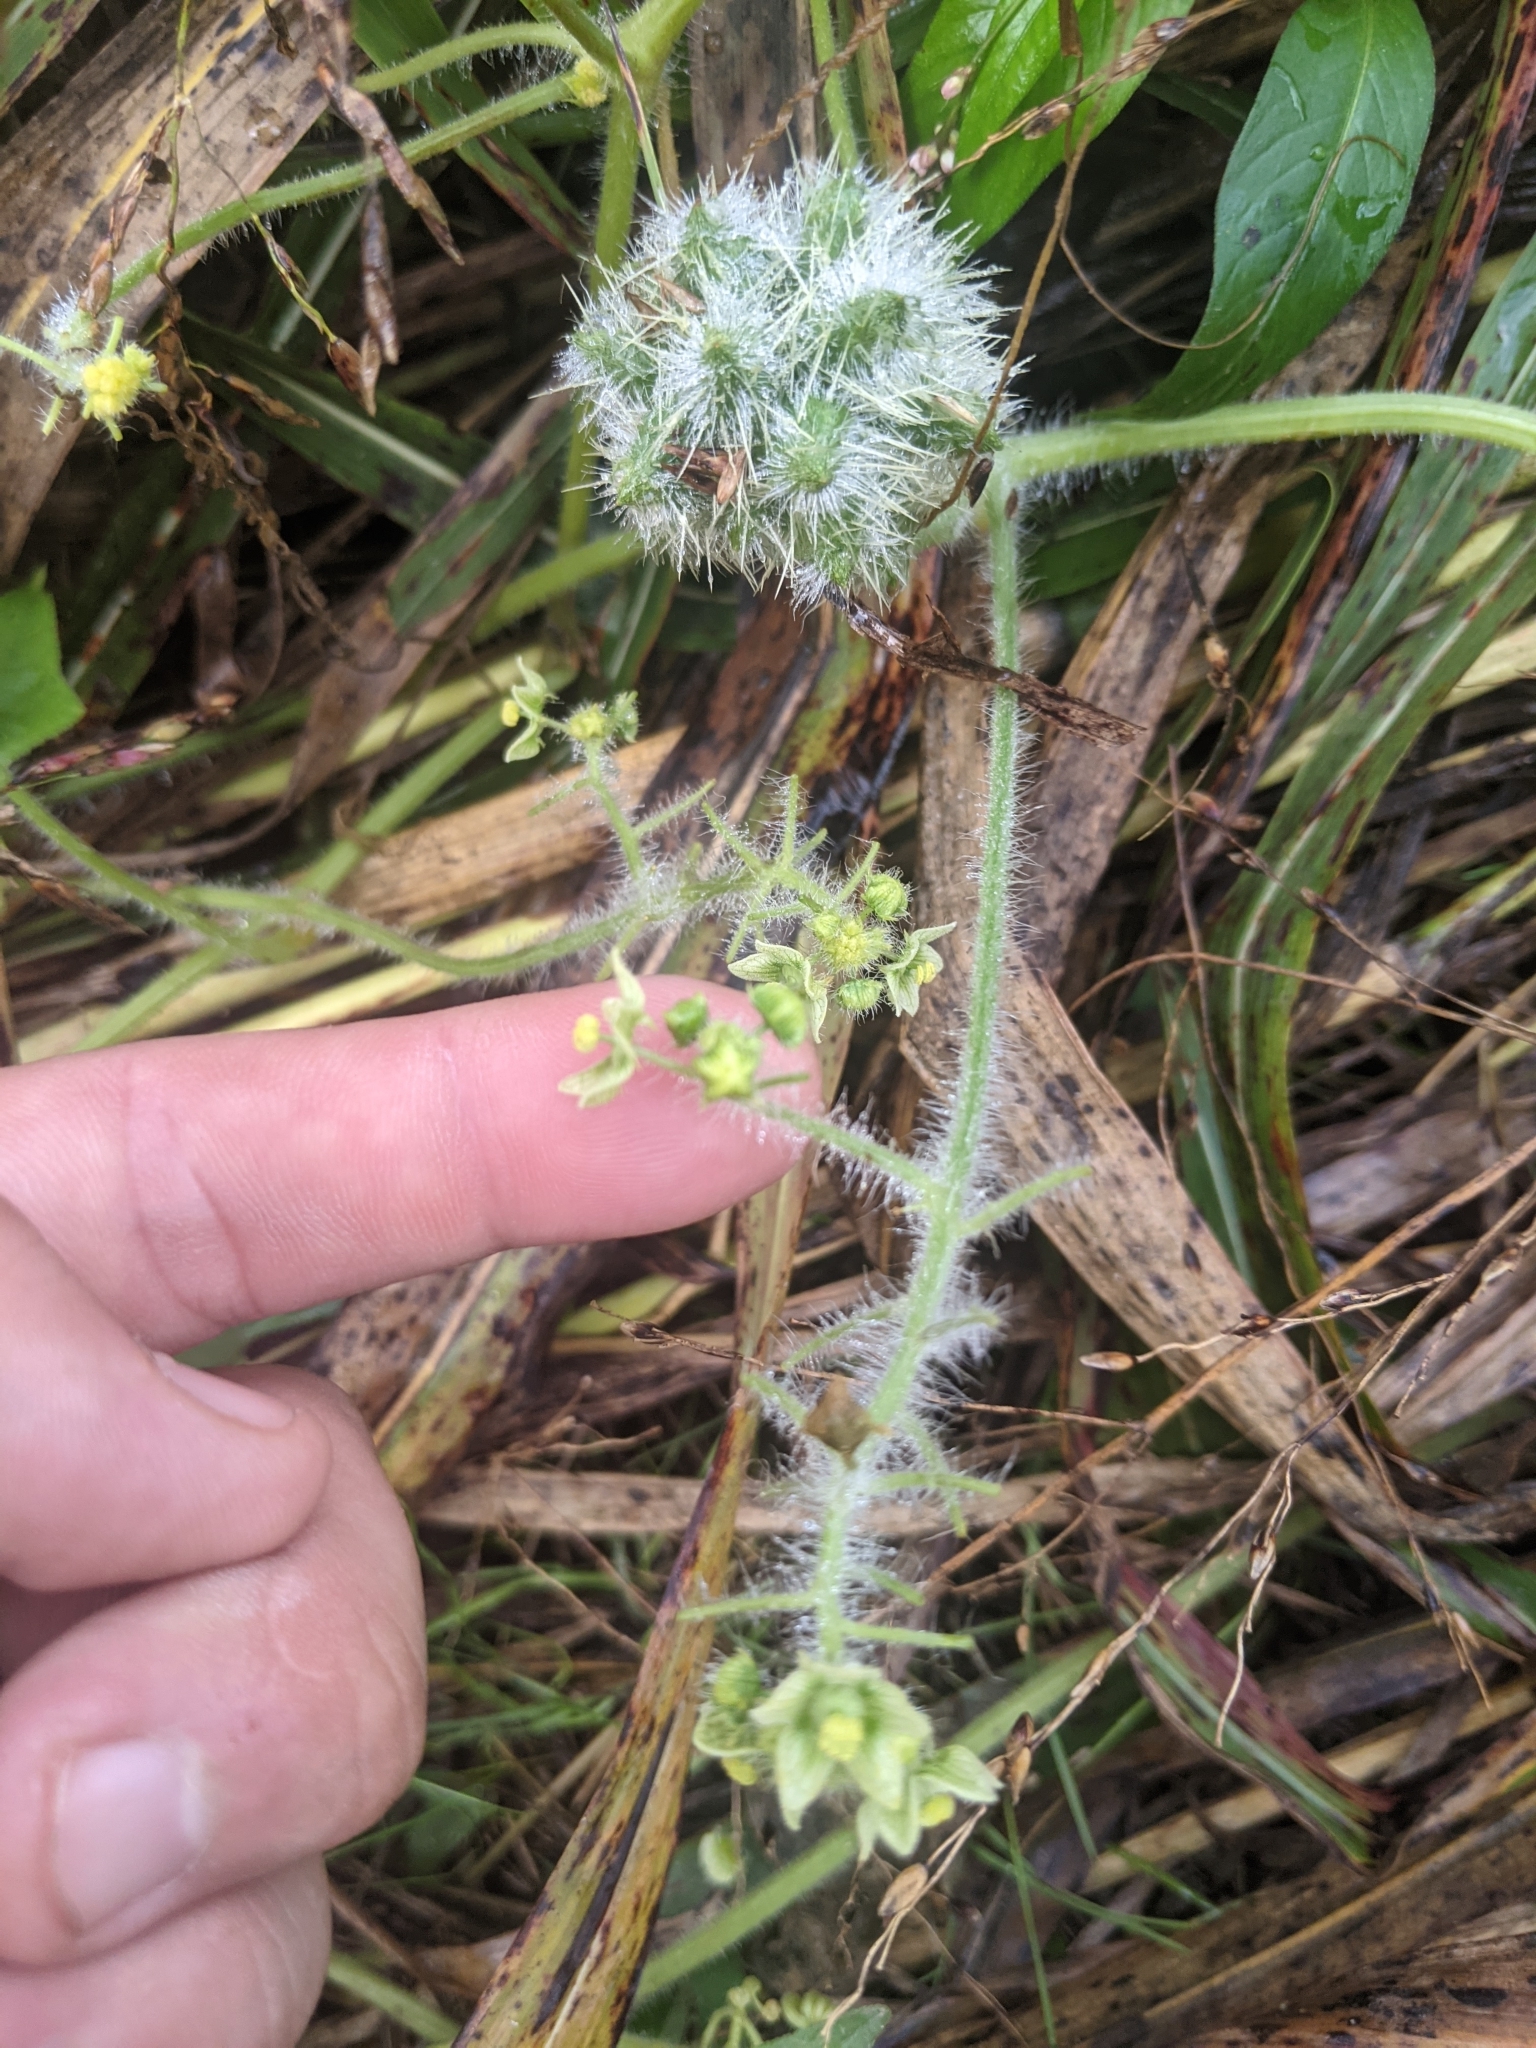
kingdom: Plantae
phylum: Tracheophyta
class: Magnoliopsida
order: Cucurbitales
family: Cucurbitaceae
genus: Sicyos
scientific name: Sicyos angulatus
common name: Angled burr cucumber
